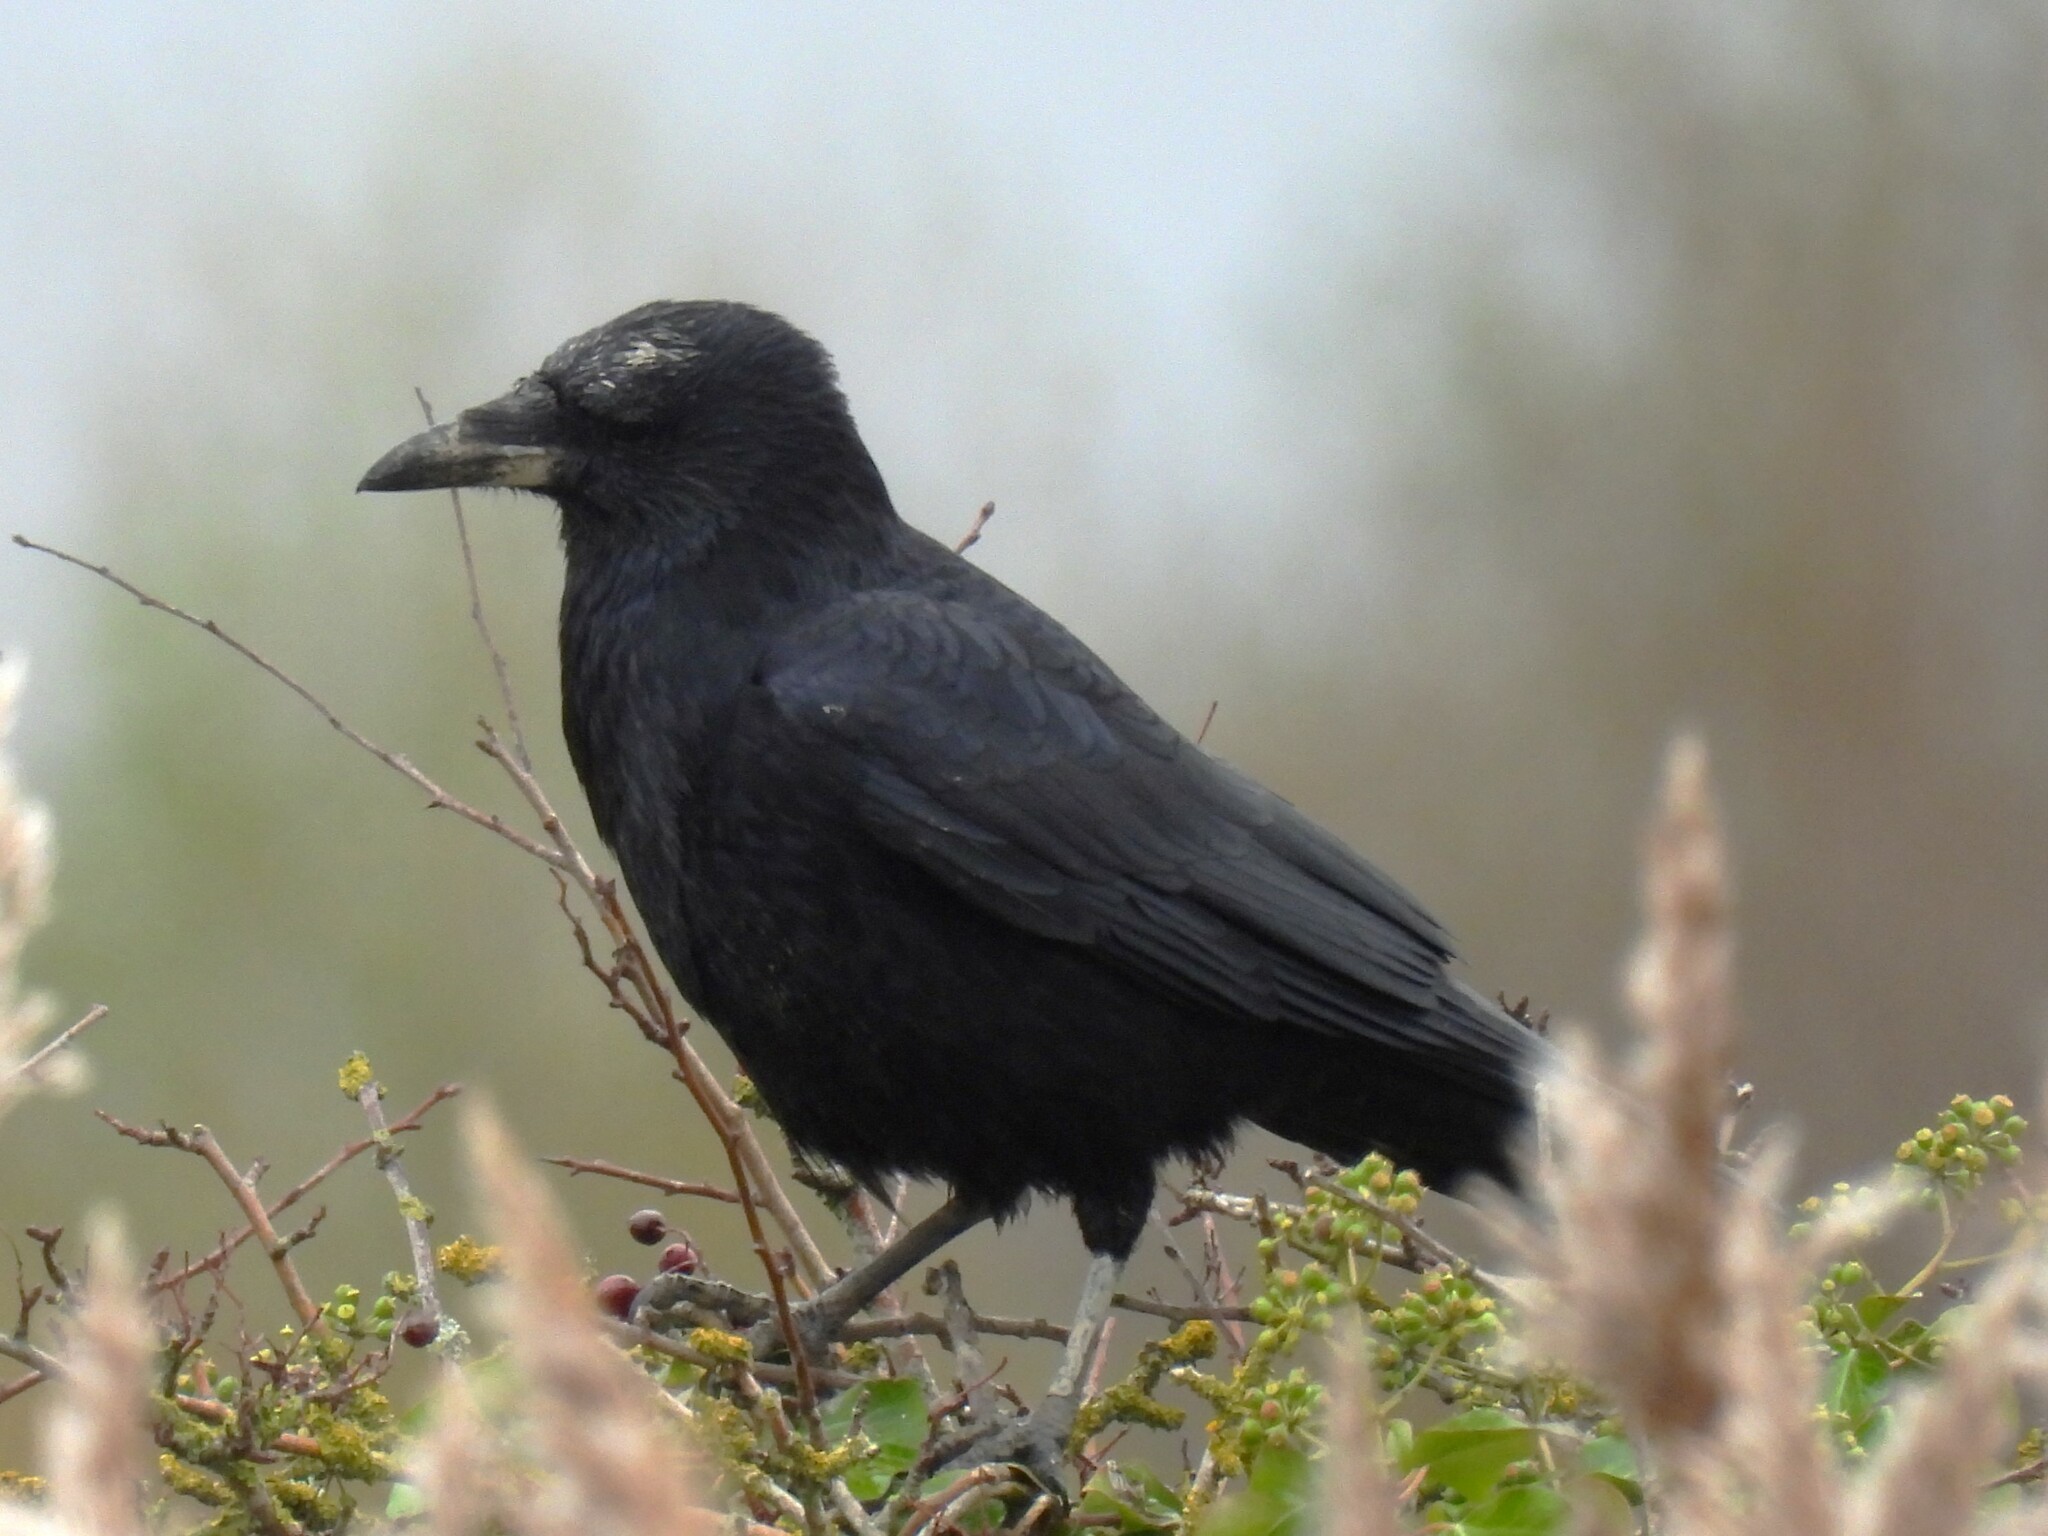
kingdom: Animalia
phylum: Chordata
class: Aves
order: Passeriformes
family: Corvidae
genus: Corvus
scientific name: Corvus corone
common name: Carrion crow
